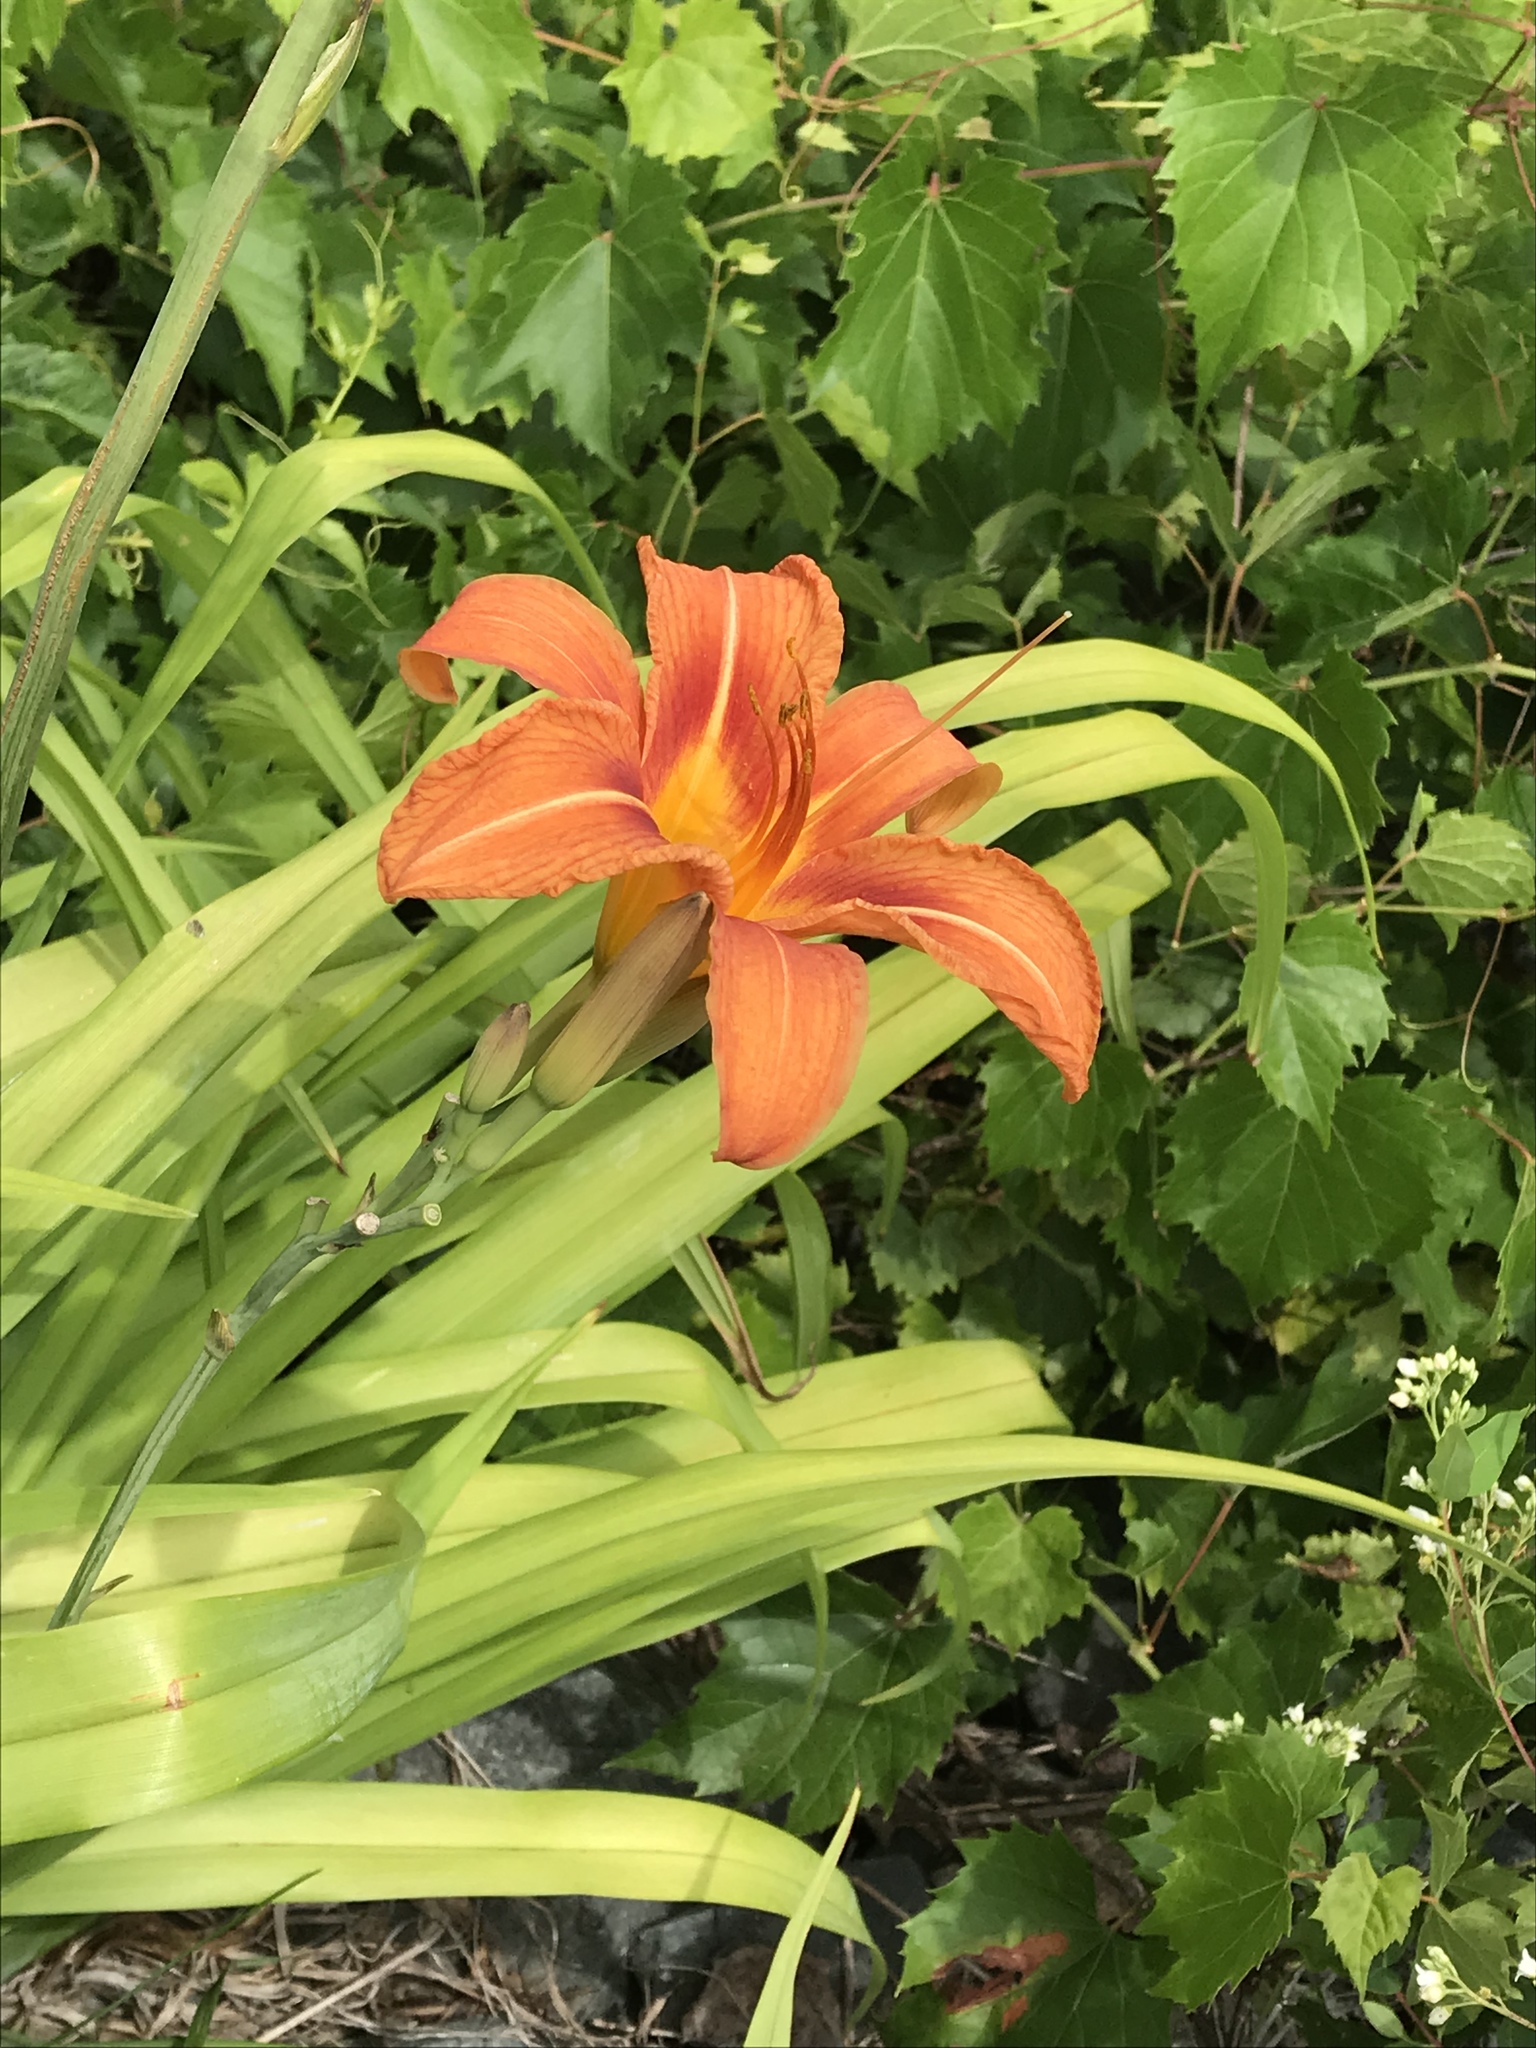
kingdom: Plantae
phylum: Tracheophyta
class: Liliopsida
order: Asparagales
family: Asphodelaceae
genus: Hemerocallis
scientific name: Hemerocallis fulva
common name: Orange day-lily
